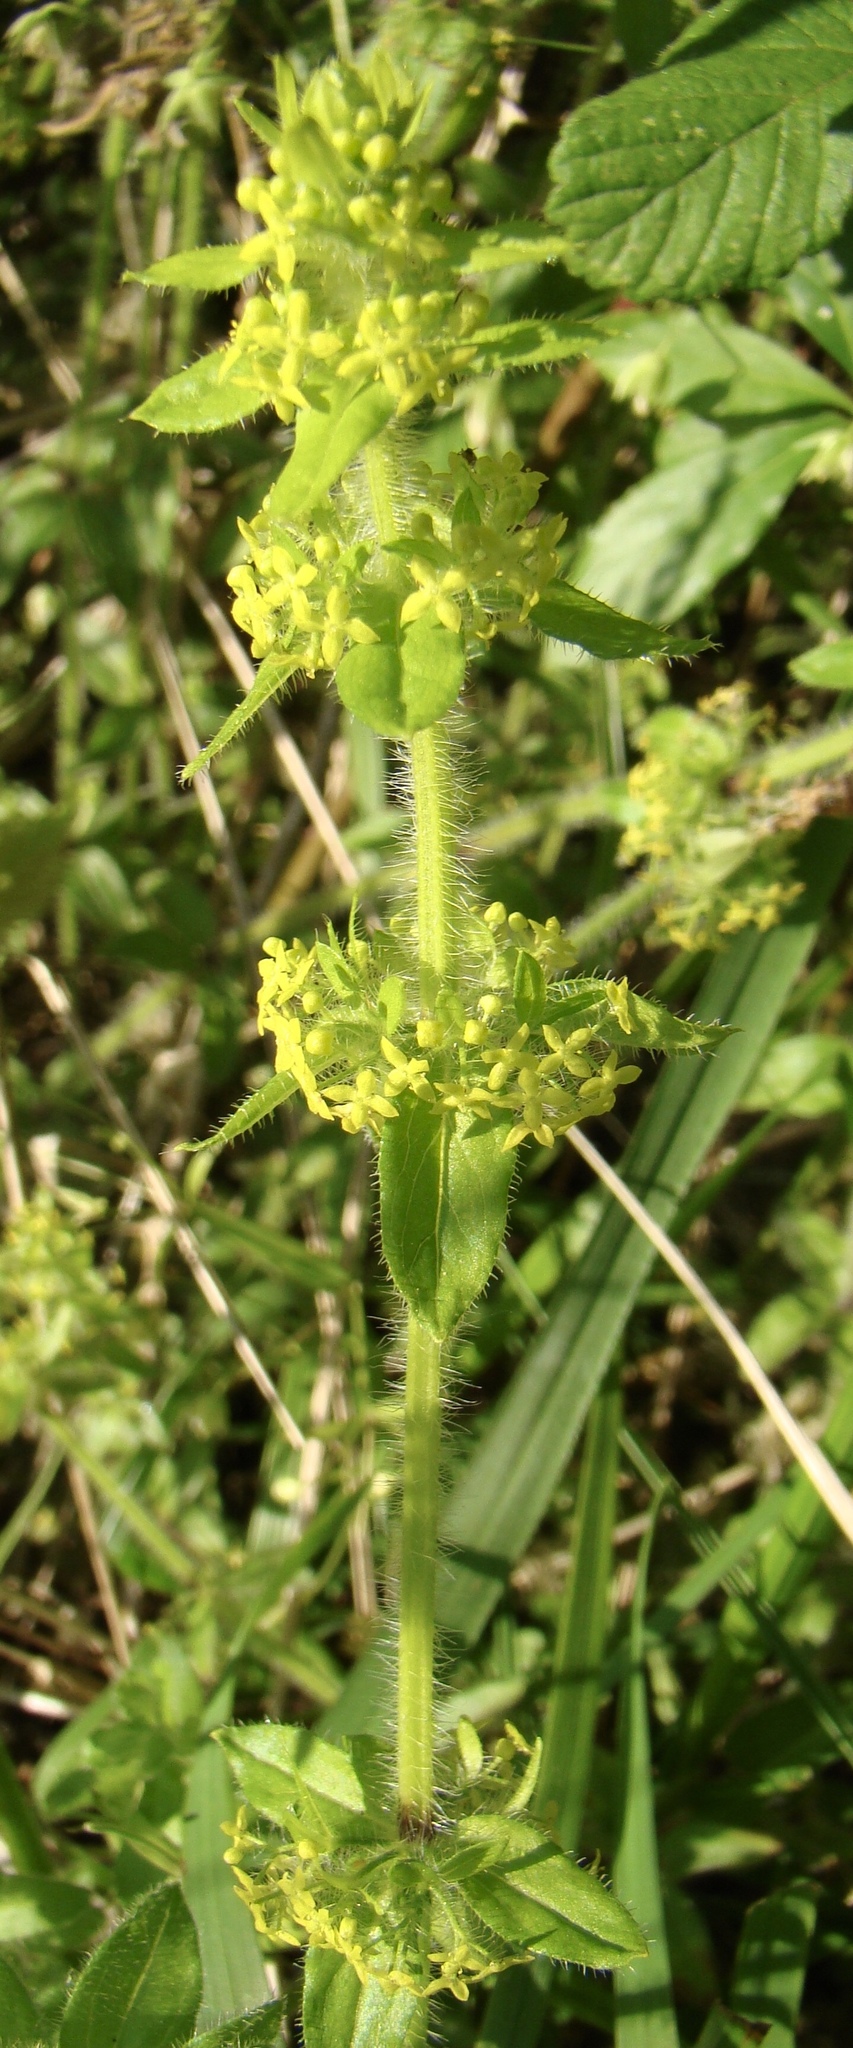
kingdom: Plantae
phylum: Tracheophyta
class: Magnoliopsida
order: Gentianales
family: Rubiaceae
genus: Cruciata
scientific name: Cruciata laevipes
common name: Crosswort
